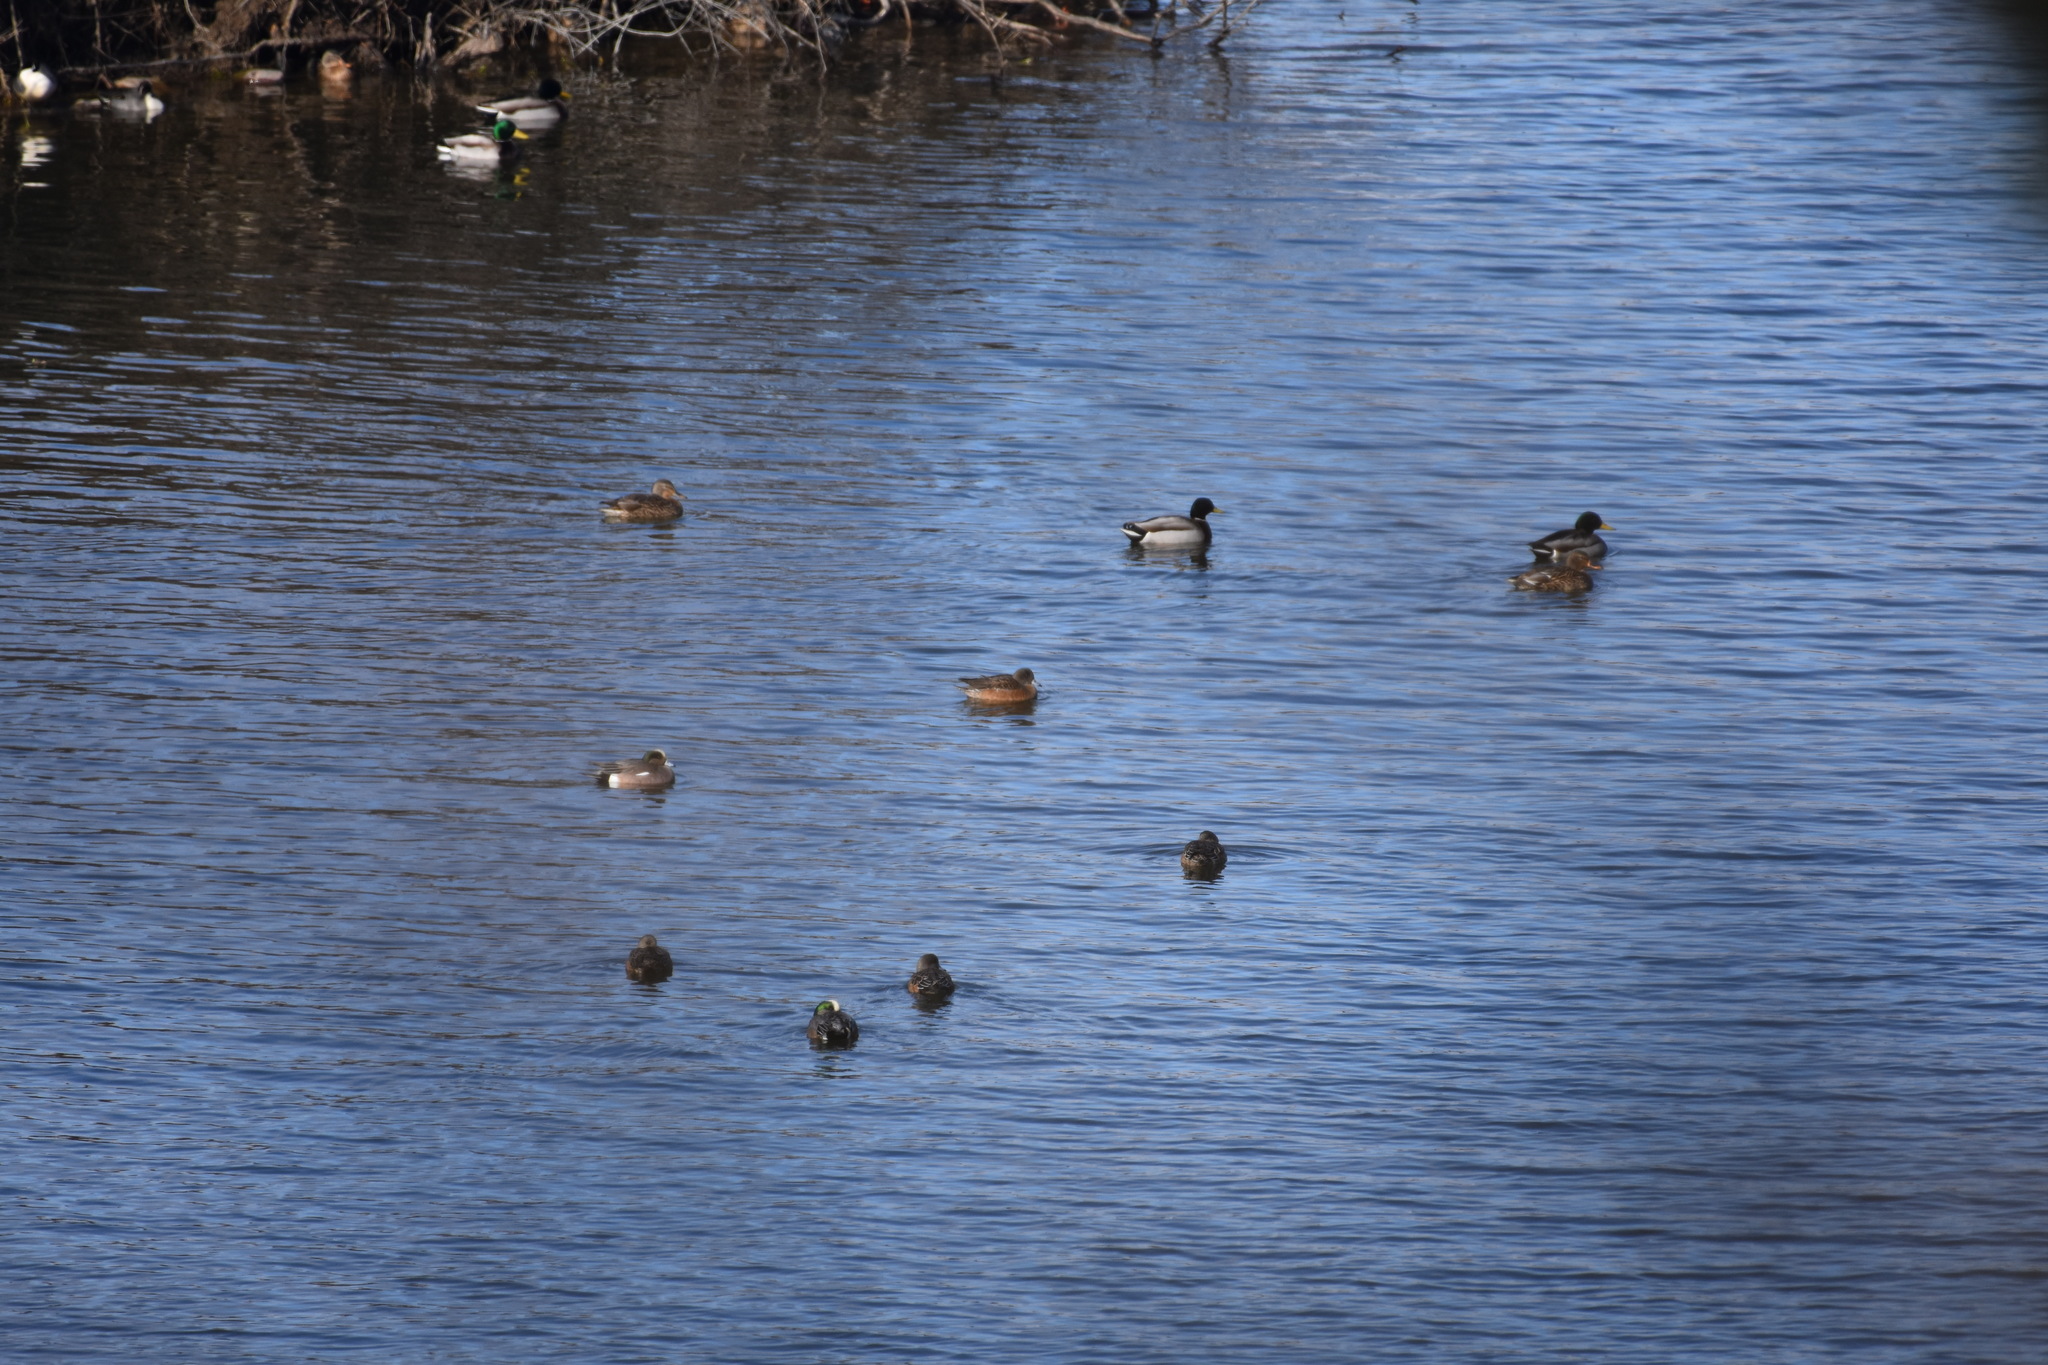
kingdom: Animalia
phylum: Chordata
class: Aves
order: Anseriformes
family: Anatidae
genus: Mareca
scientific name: Mareca americana
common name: American wigeon
